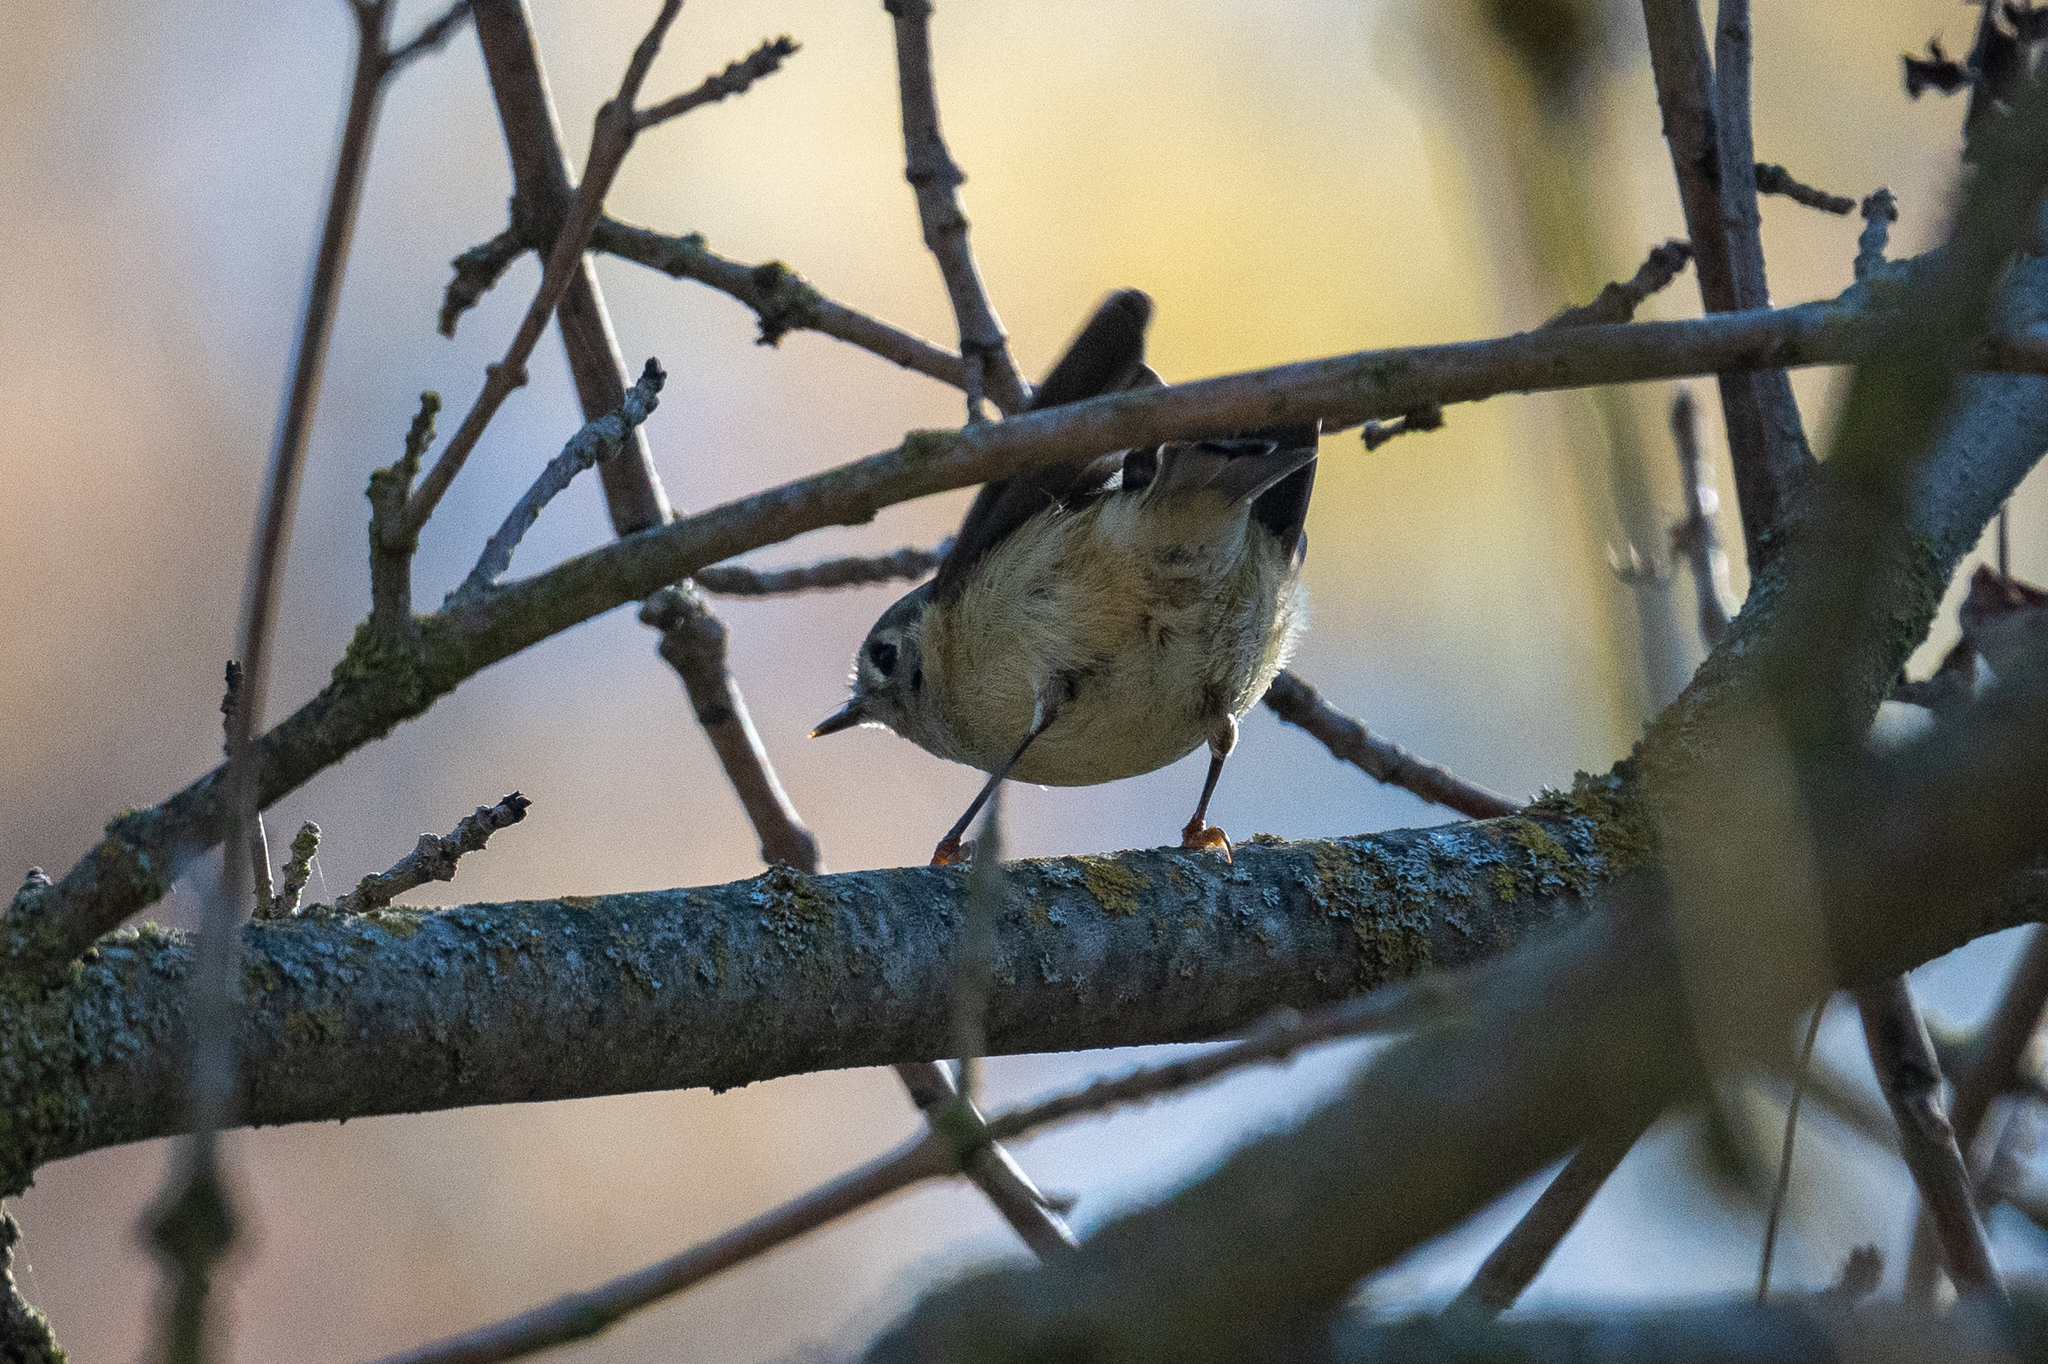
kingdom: Animalia
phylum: Chordata
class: Aves
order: Passeriformes
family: Regulidae
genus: Regulus
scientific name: Regulus calendula
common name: Ruby-crowned kinglet
